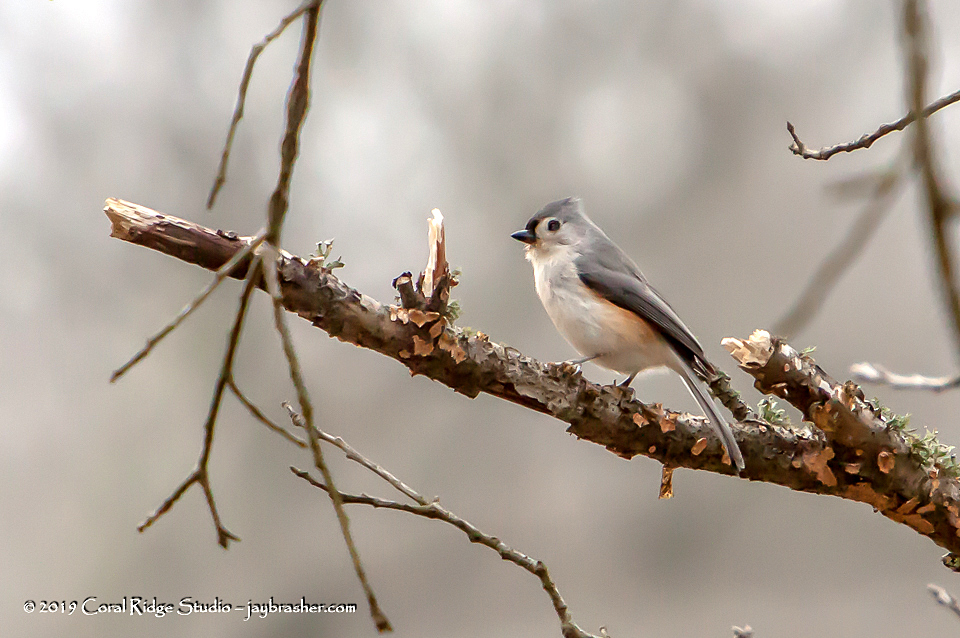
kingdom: Animalia
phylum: Chordata
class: Aves
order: Passeriformes
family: Paridae
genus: Baeolophus
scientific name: Baeolophus bicolor
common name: Tufted titmouse
